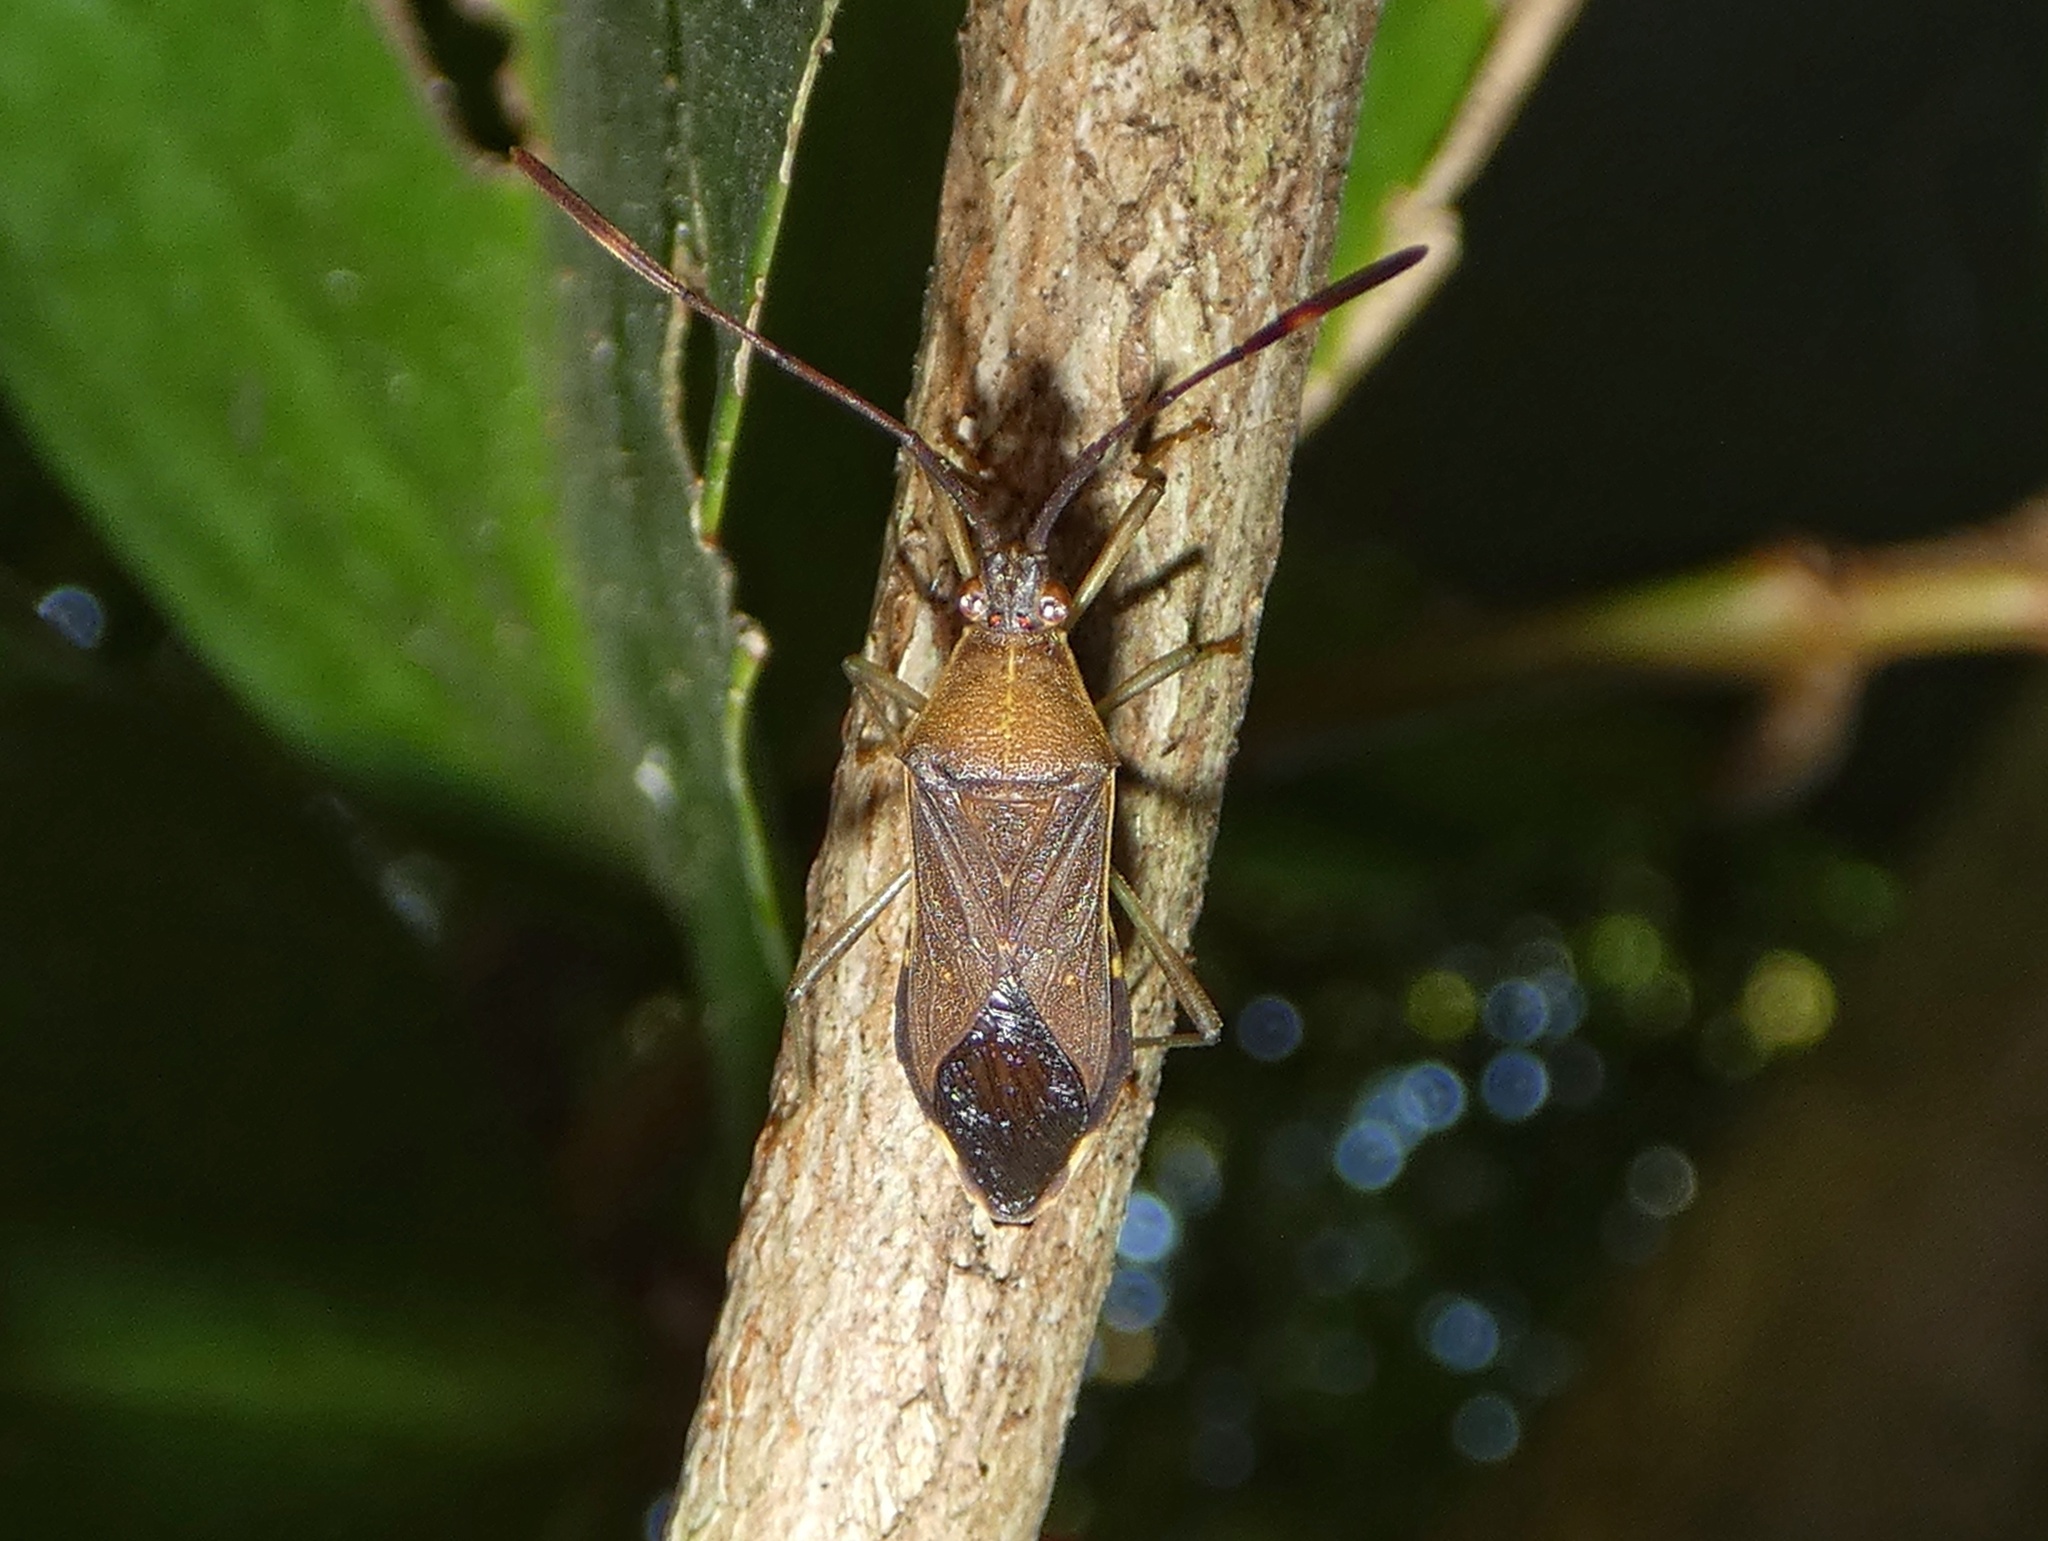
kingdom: Animalia
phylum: Arthropoda
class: Insecta
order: Hemiptera
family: Coreidae
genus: Cneius
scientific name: Cneius dentipes
